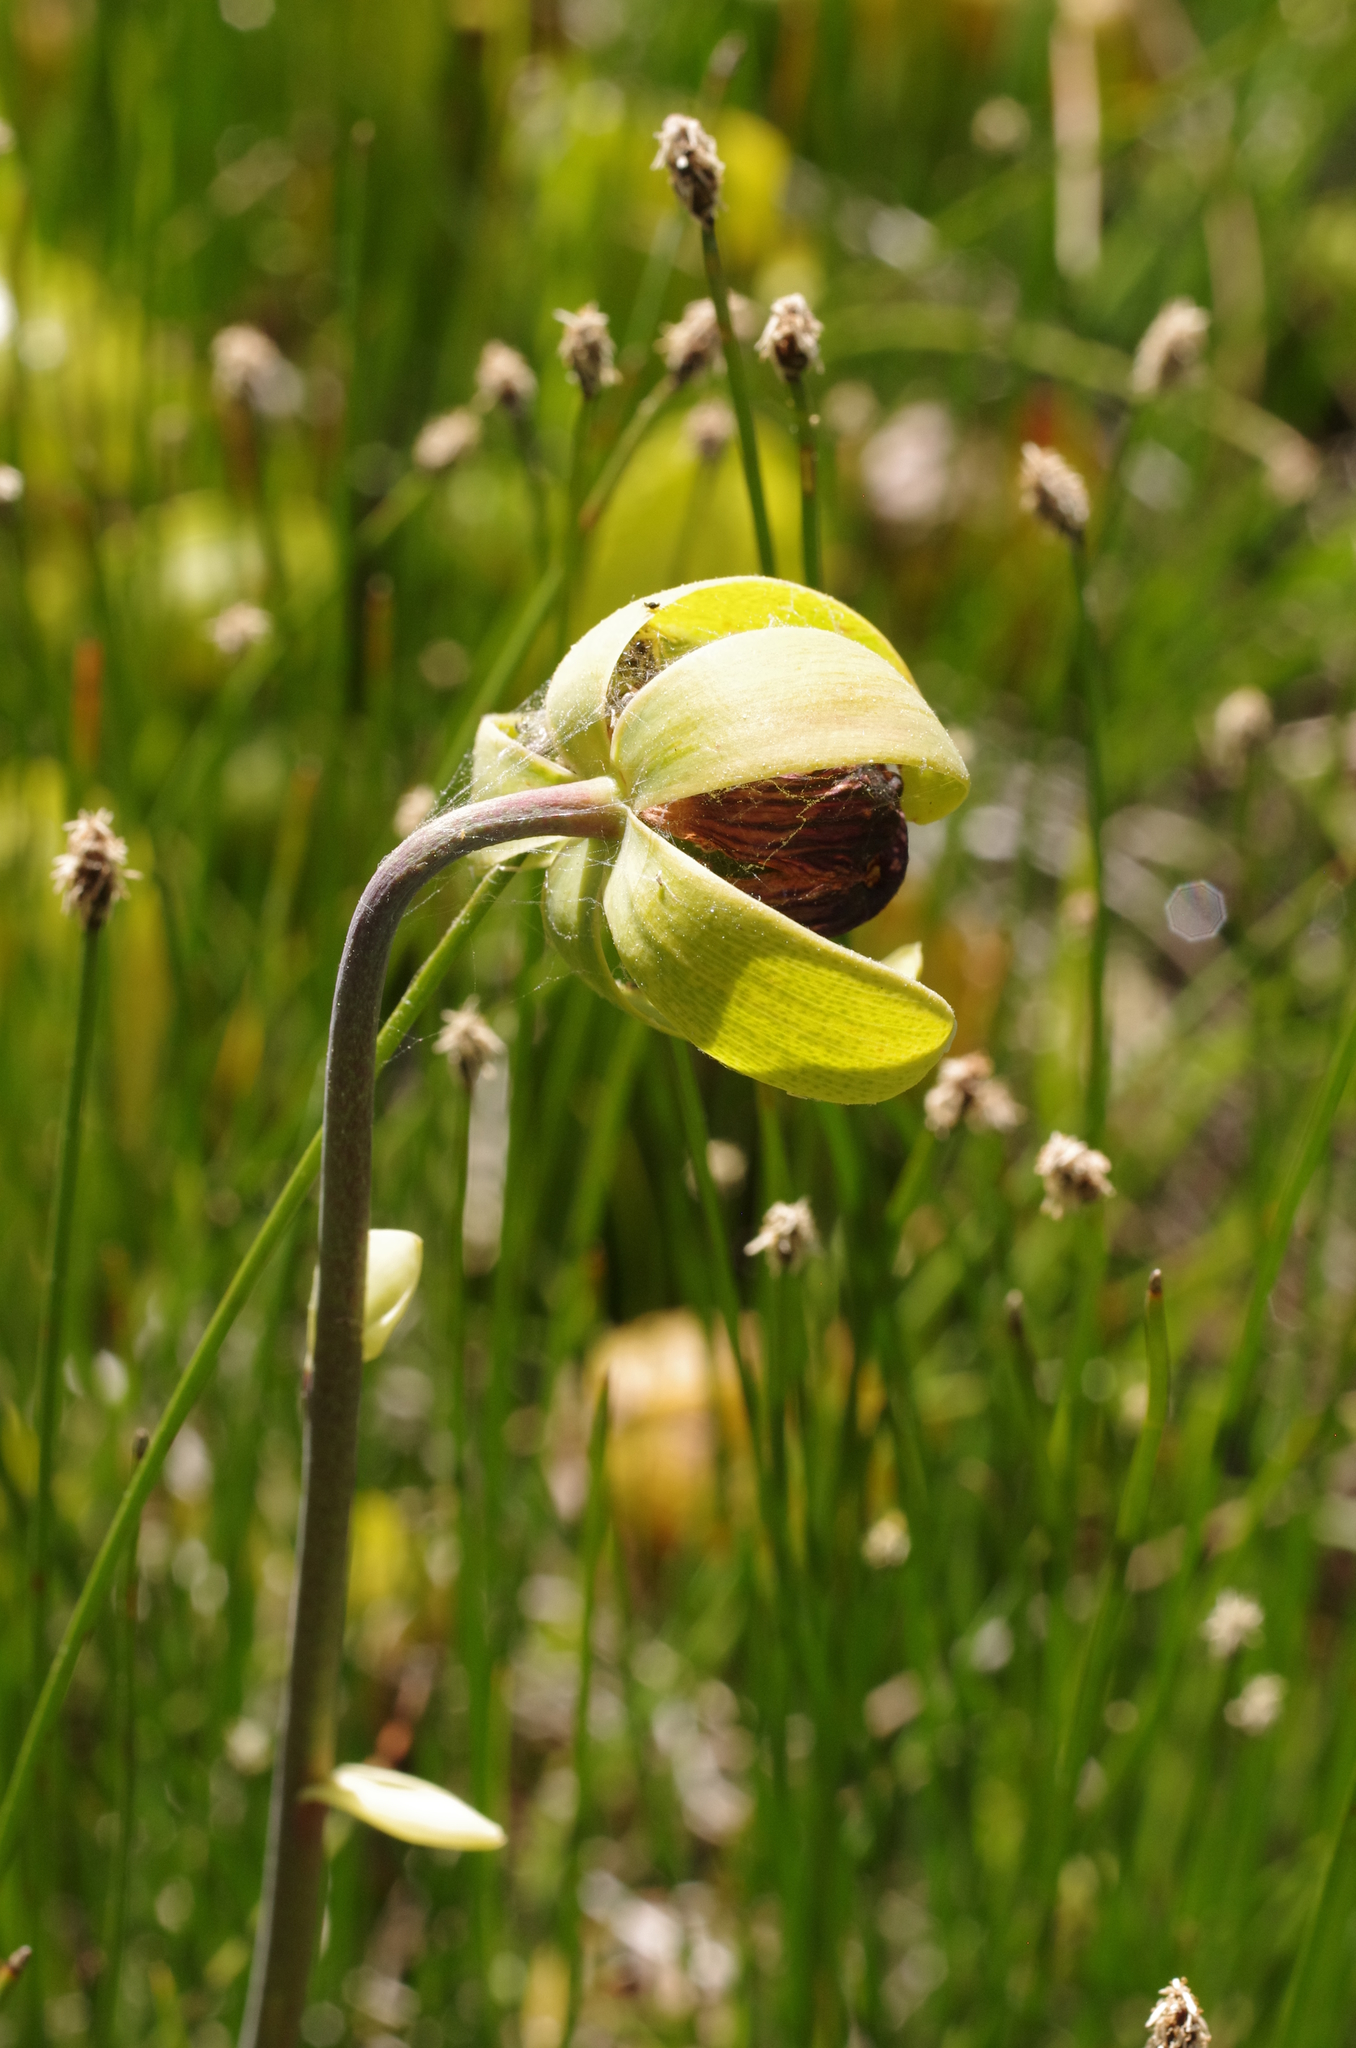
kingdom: Plantae
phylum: Tracheophyta
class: Magnoliopsida
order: Ericales
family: Sarraceniaceae
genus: Darlingtonia
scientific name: Darlingtonia californica
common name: California pitcher plant
